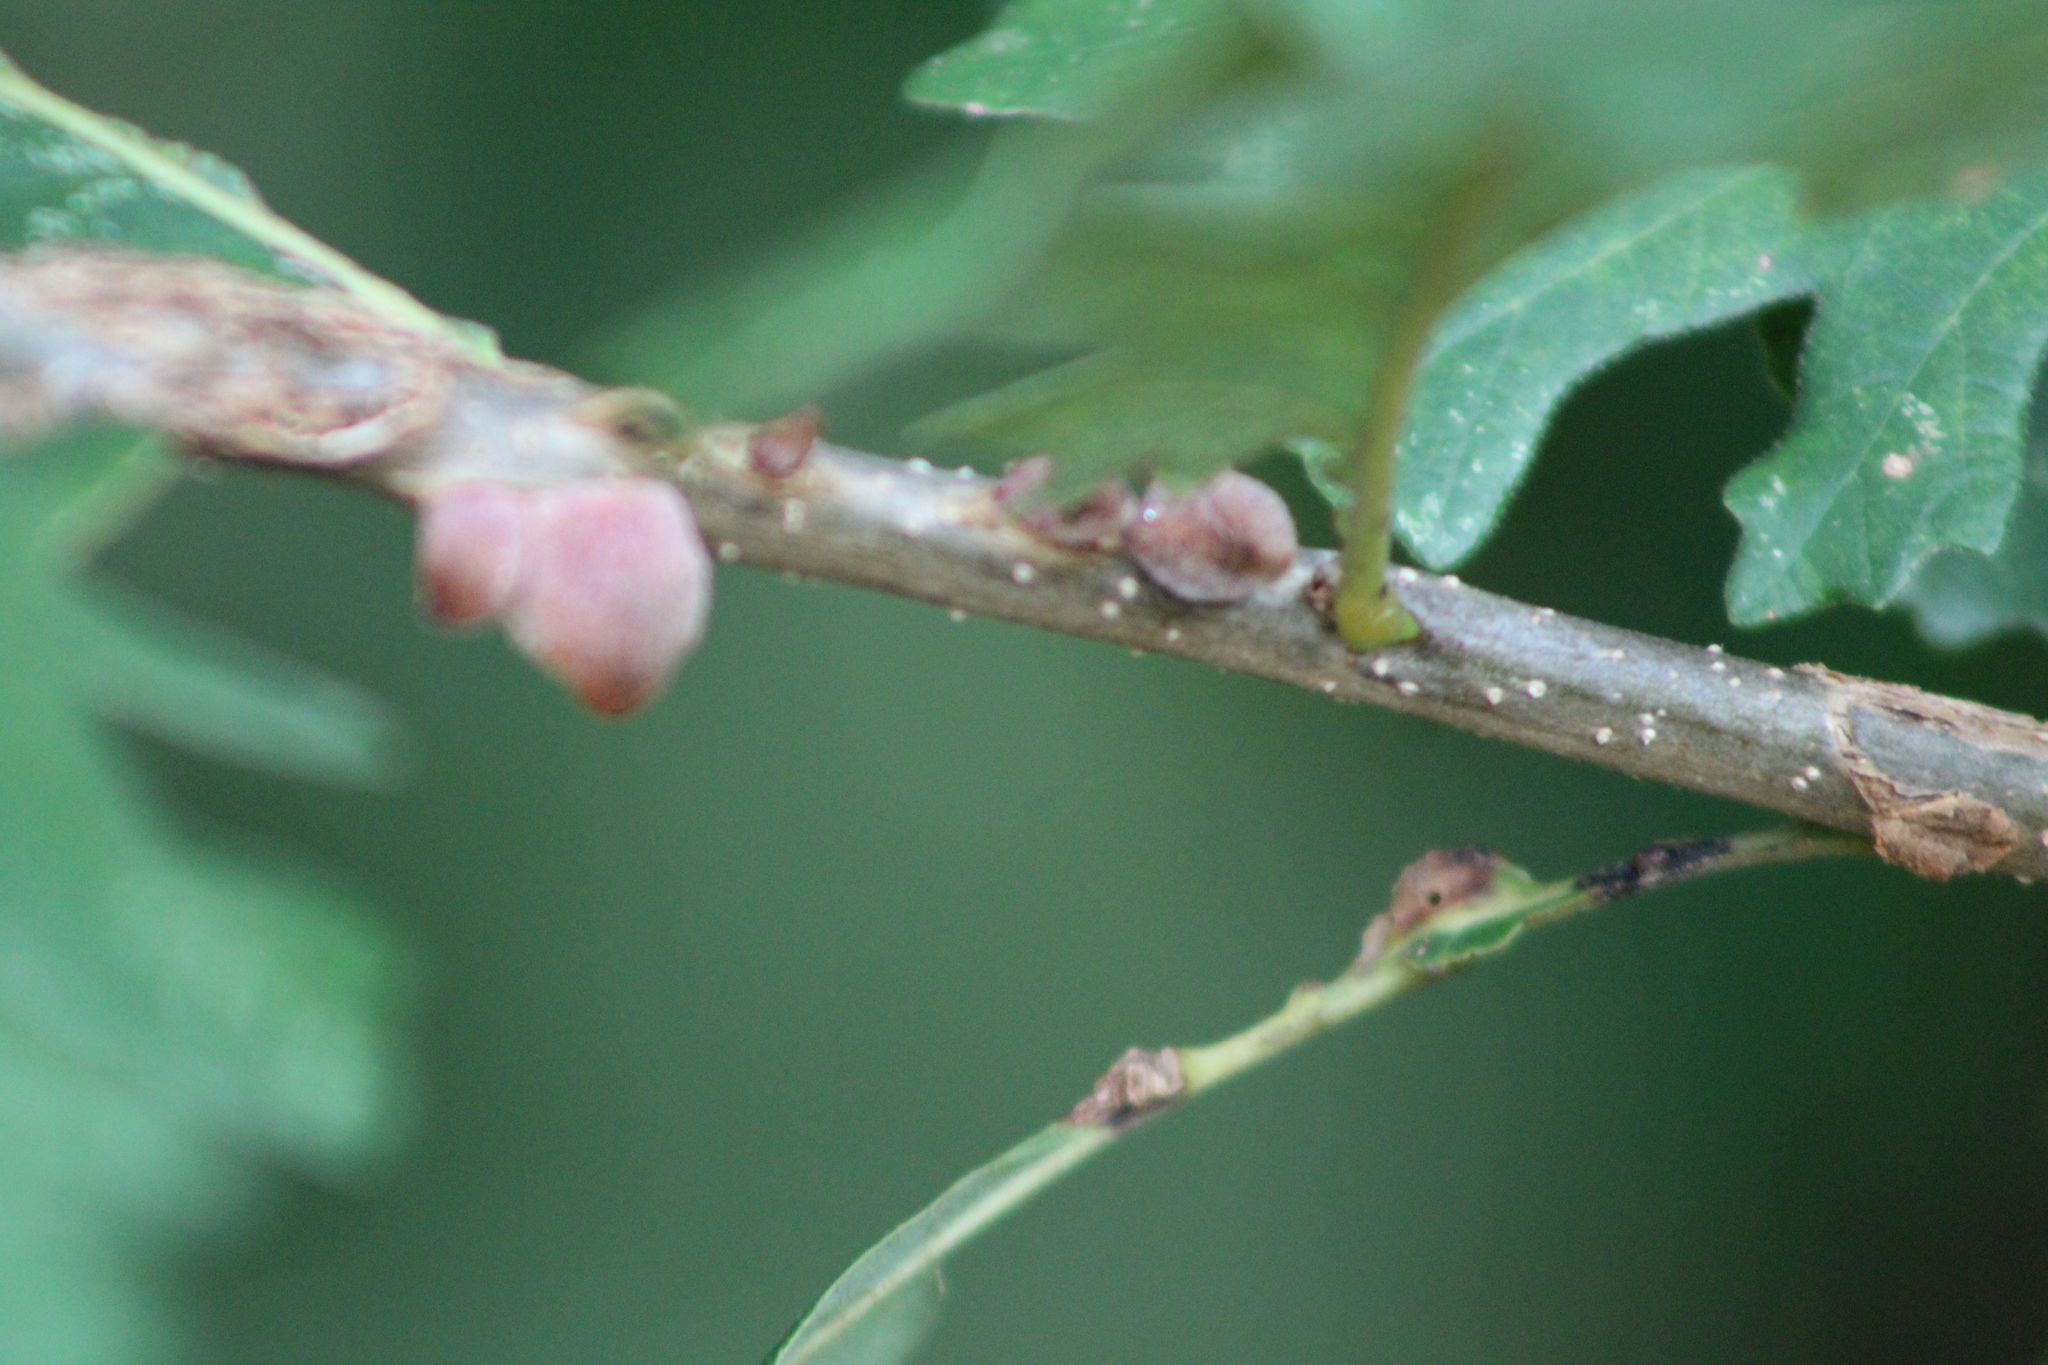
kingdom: Animalia
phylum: Arthropoda
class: Insecta
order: Hymenoptera
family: Cynipidae
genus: Disholcaspis
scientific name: Disholcaspis
